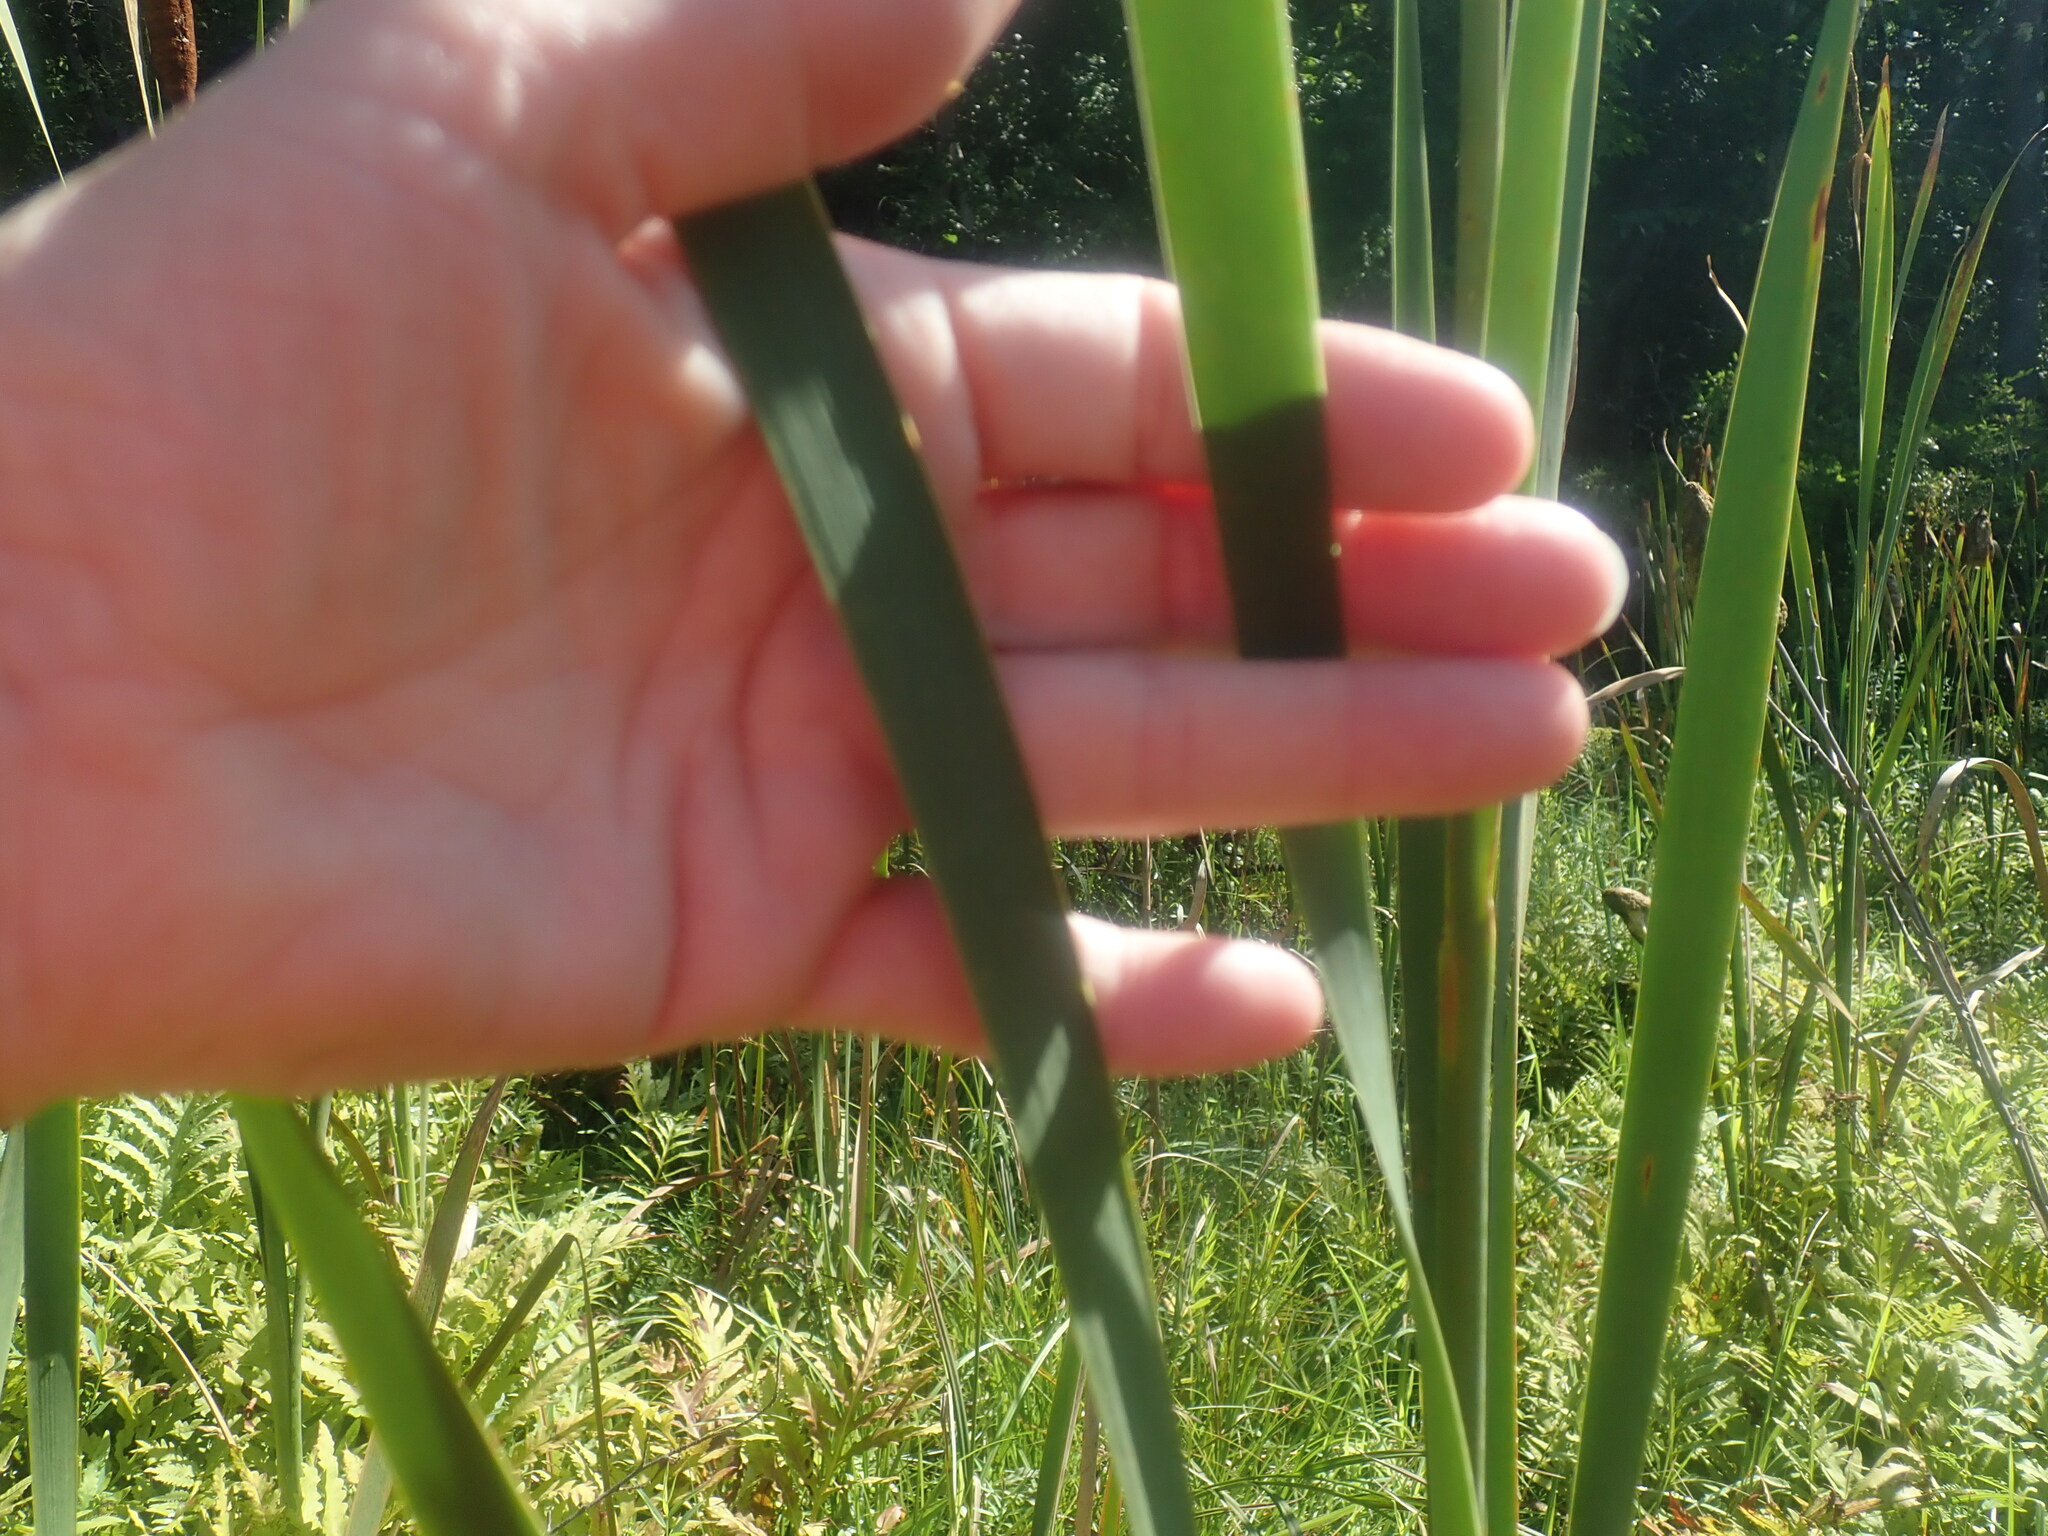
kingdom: Plantae
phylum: Tracheophyta
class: Liliopsida
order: Poales
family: Typhaceae
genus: Typha
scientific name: Typha latifolia
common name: Broadleaf cattail
